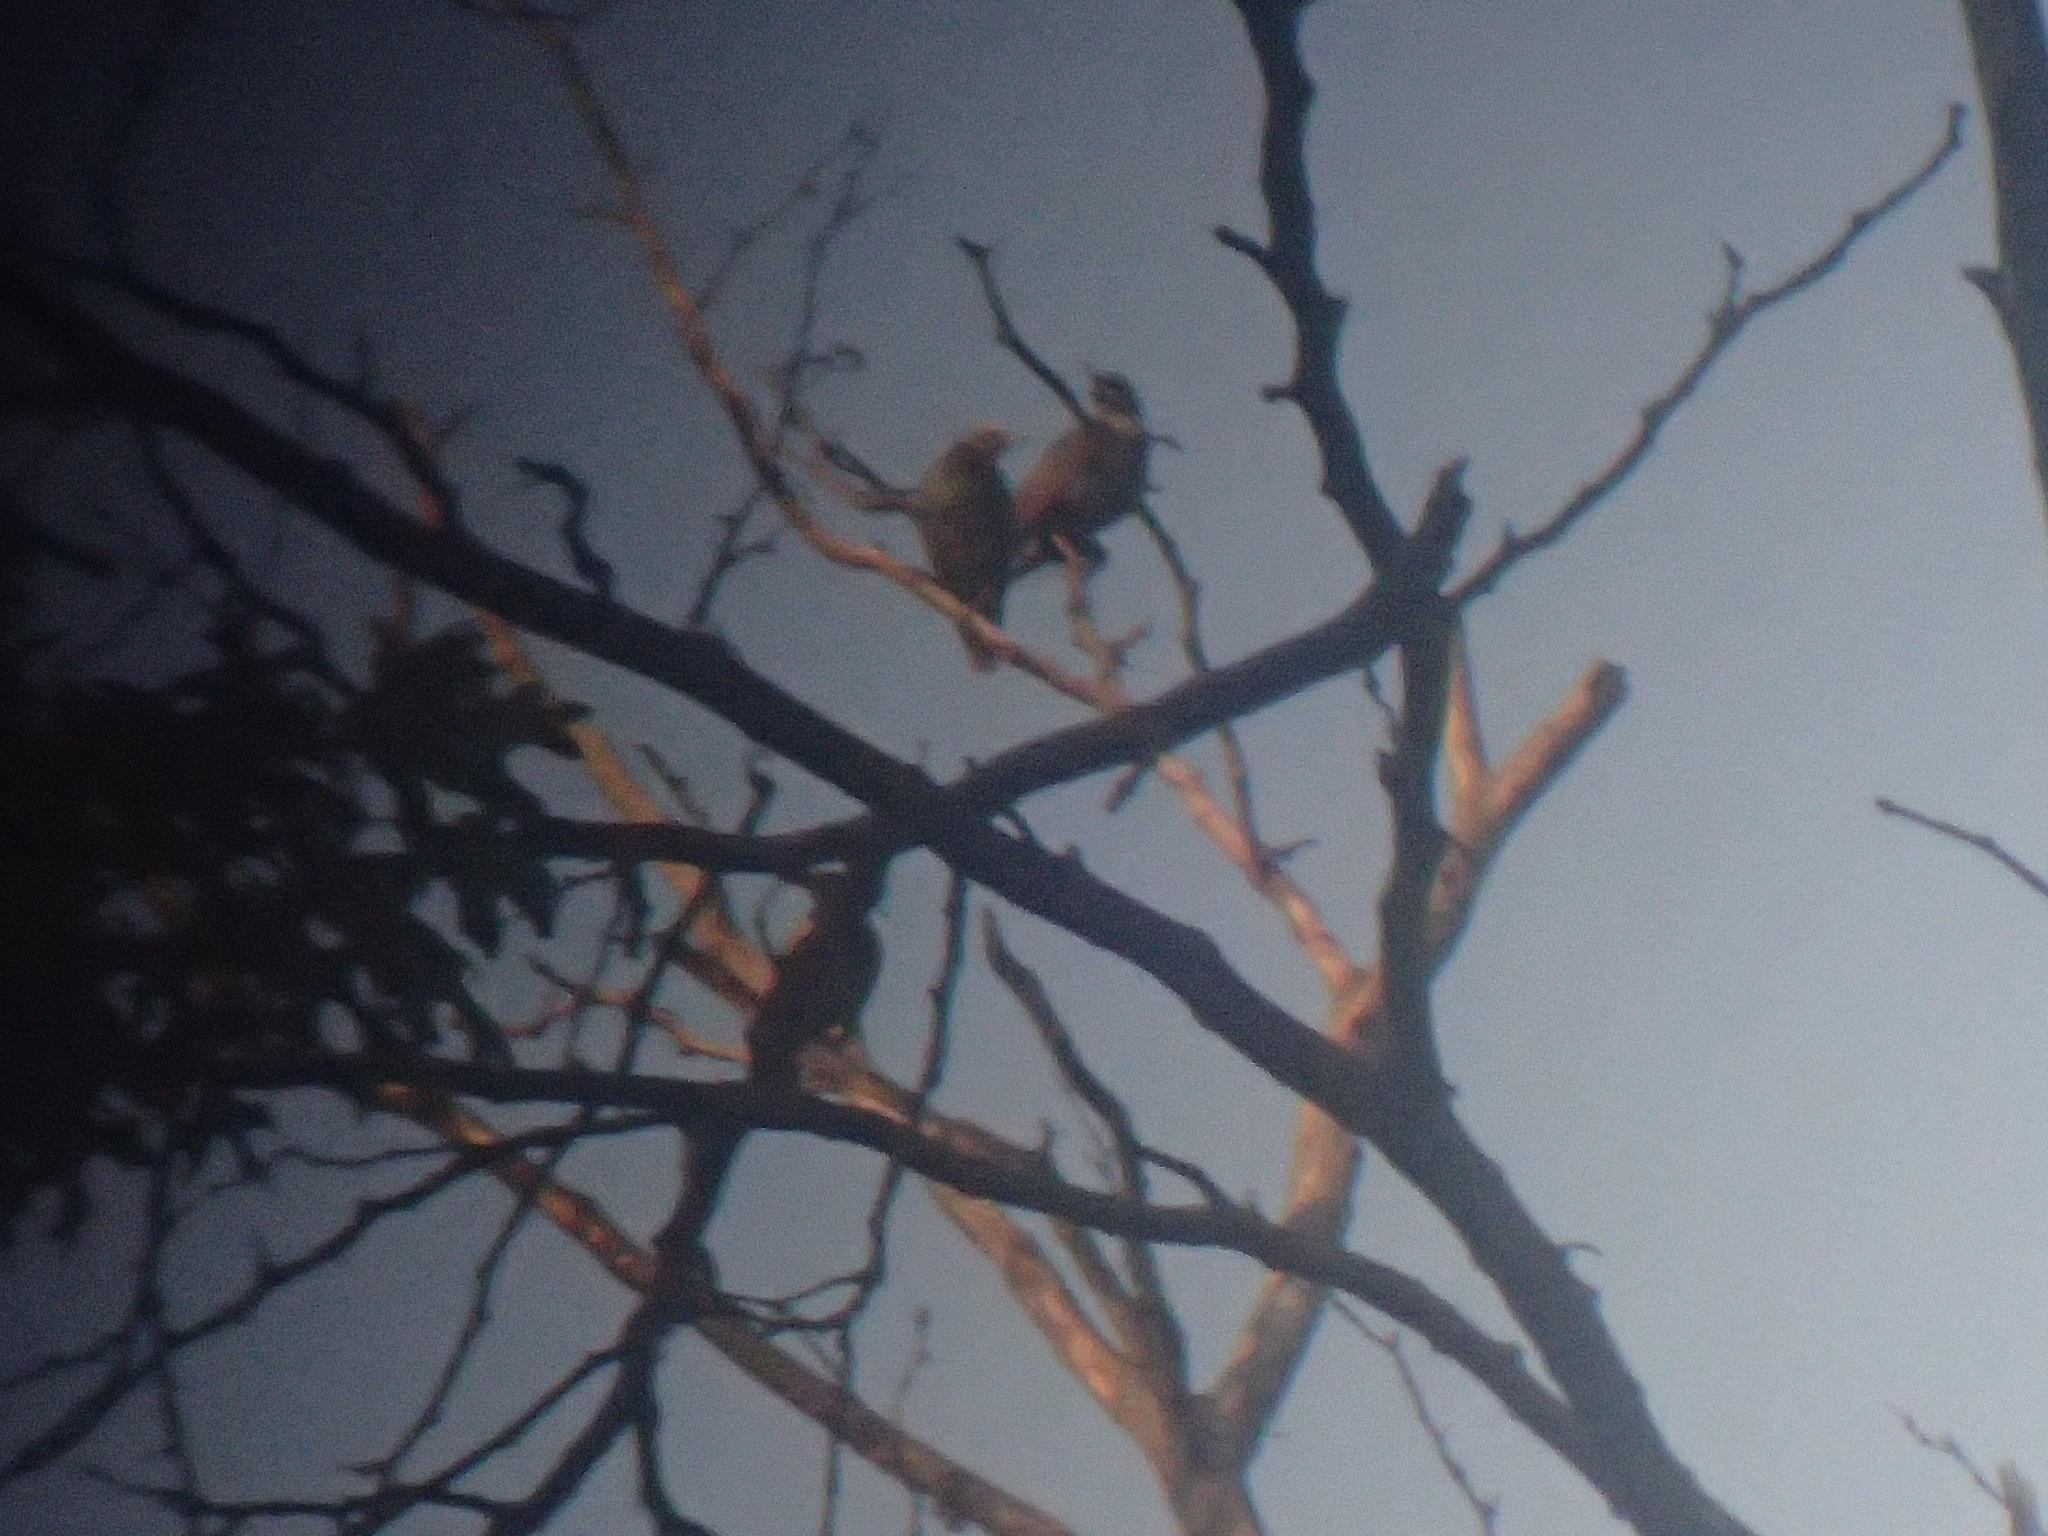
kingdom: Animalia
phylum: Chordata
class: Aves
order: Passeriformes
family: Sturnidae
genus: Sturnus
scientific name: Sturnus vulgaris
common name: Common starling
